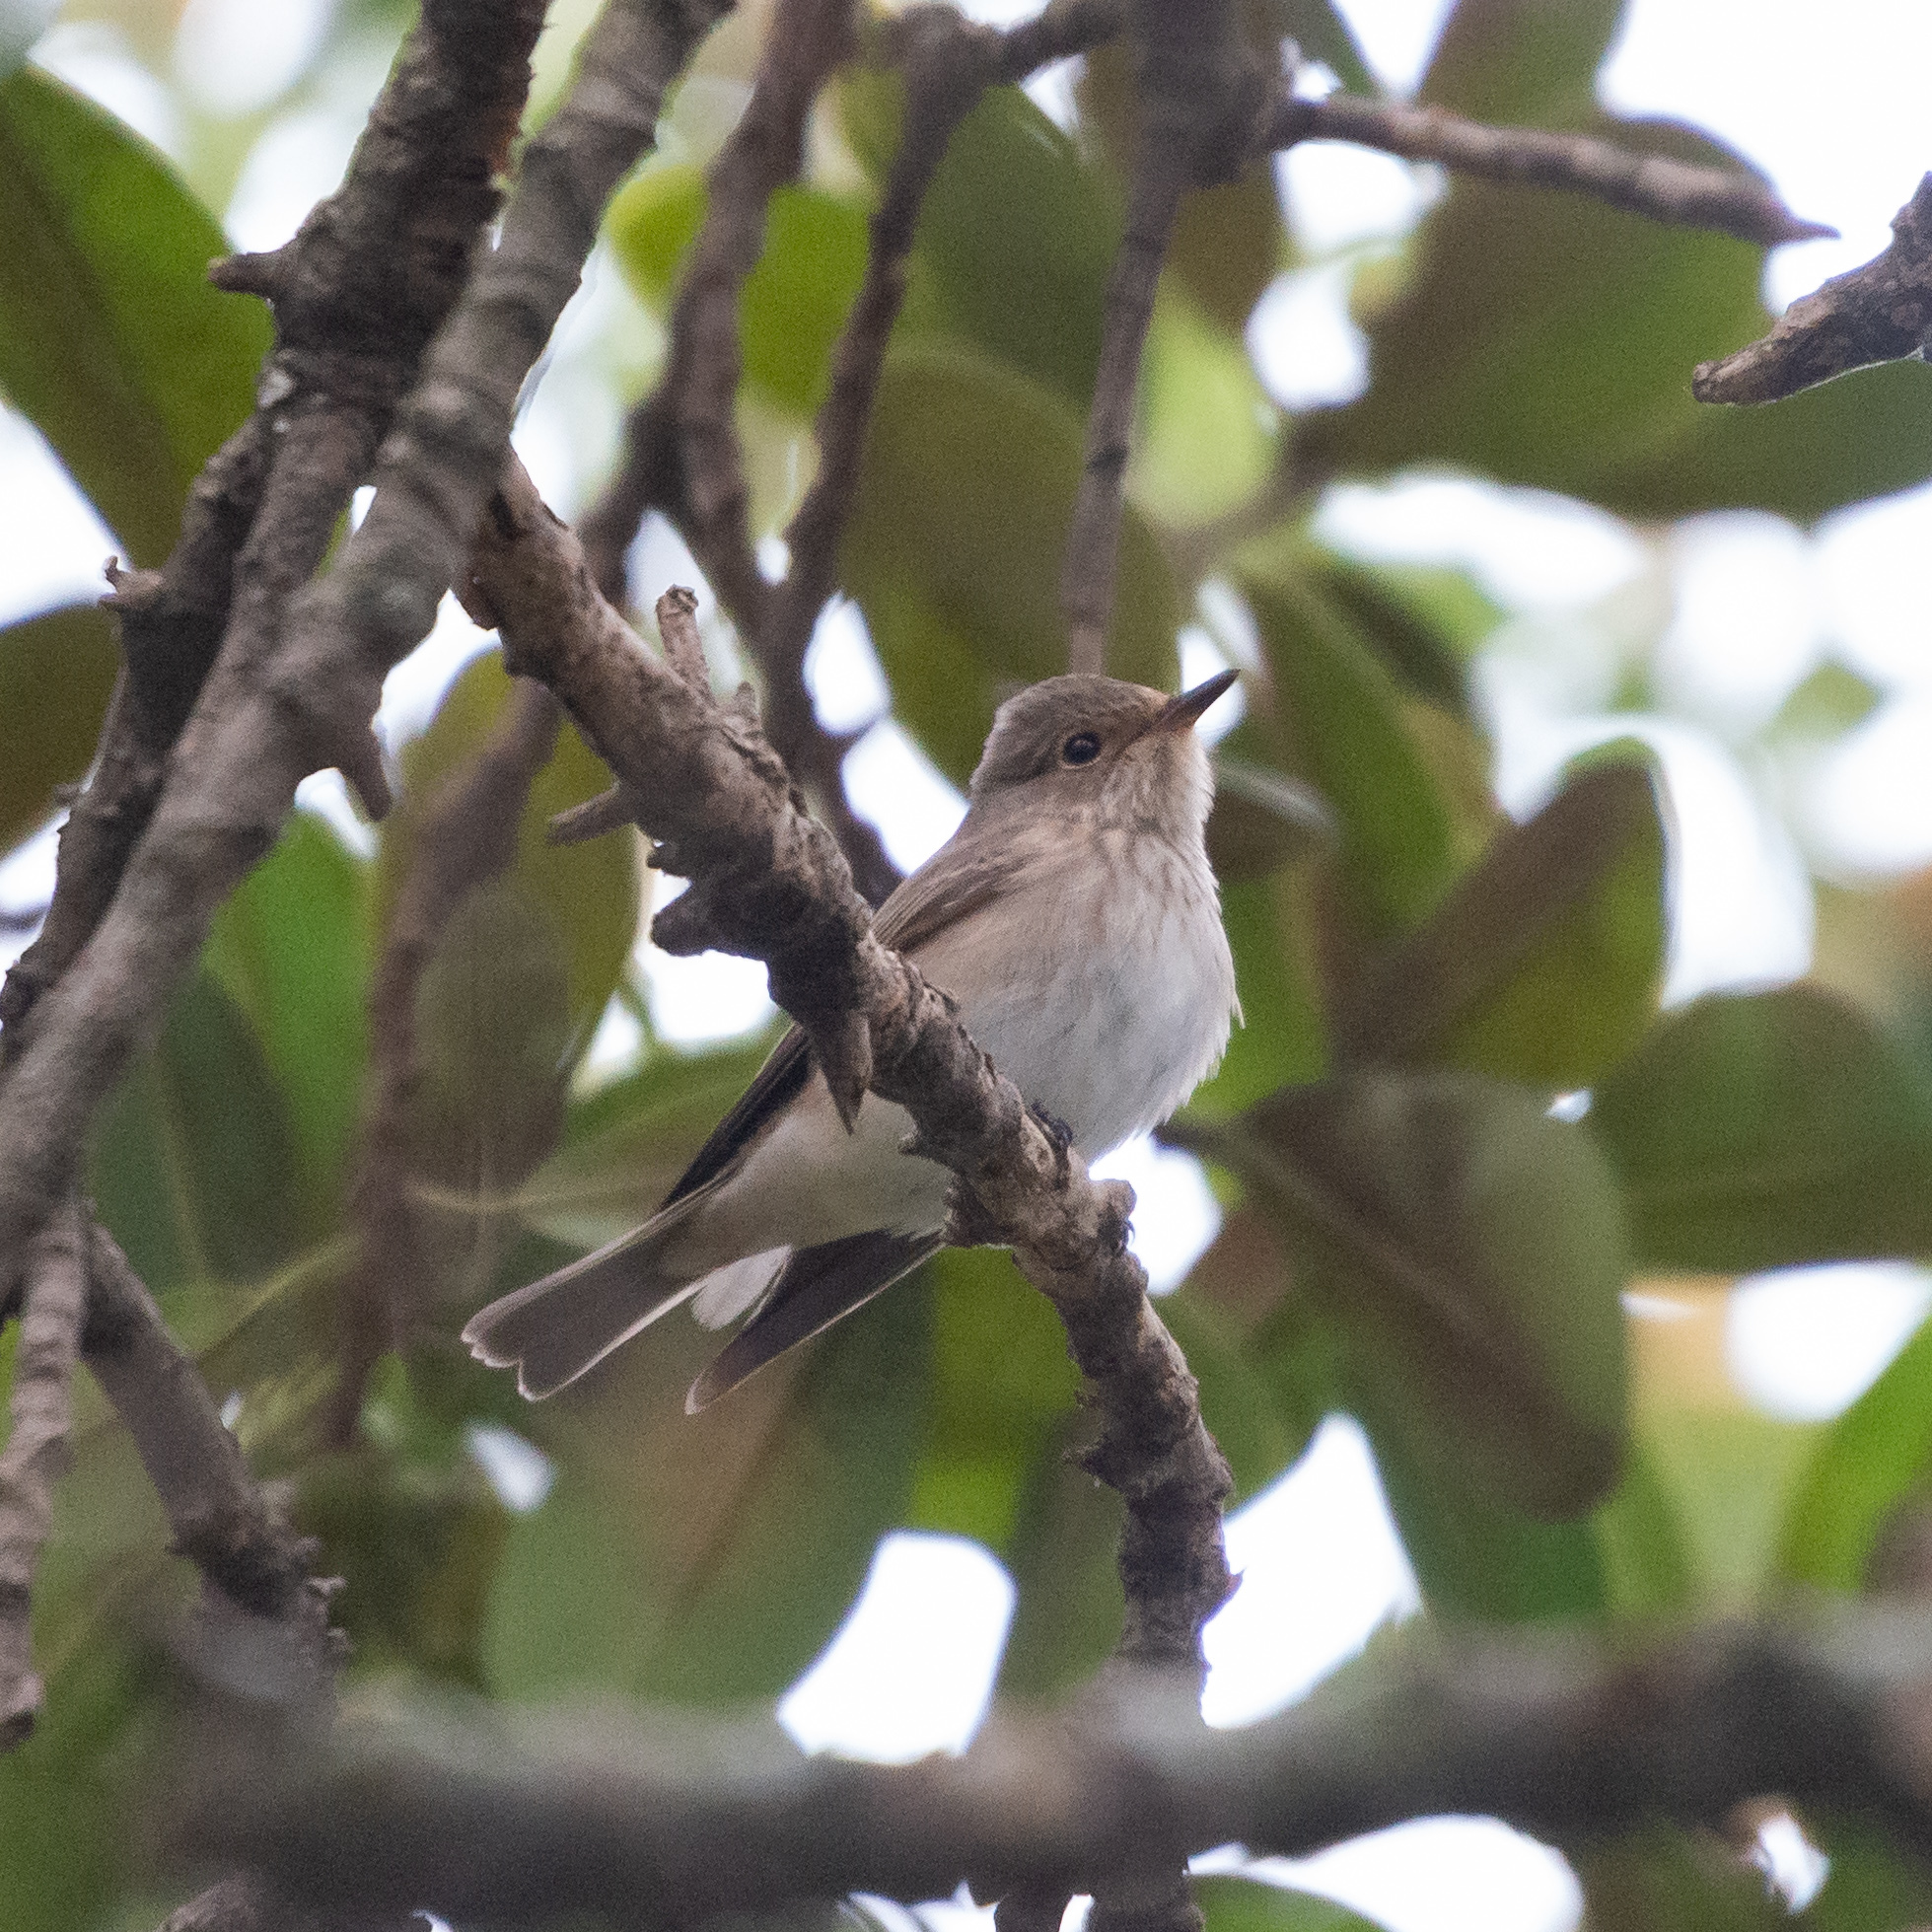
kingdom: Animalia
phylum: Chordata
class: Aves
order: Passeriformes
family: Muscicapidae
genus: Muscicapa
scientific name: Muscicapa striata
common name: Spotted flycatcher
